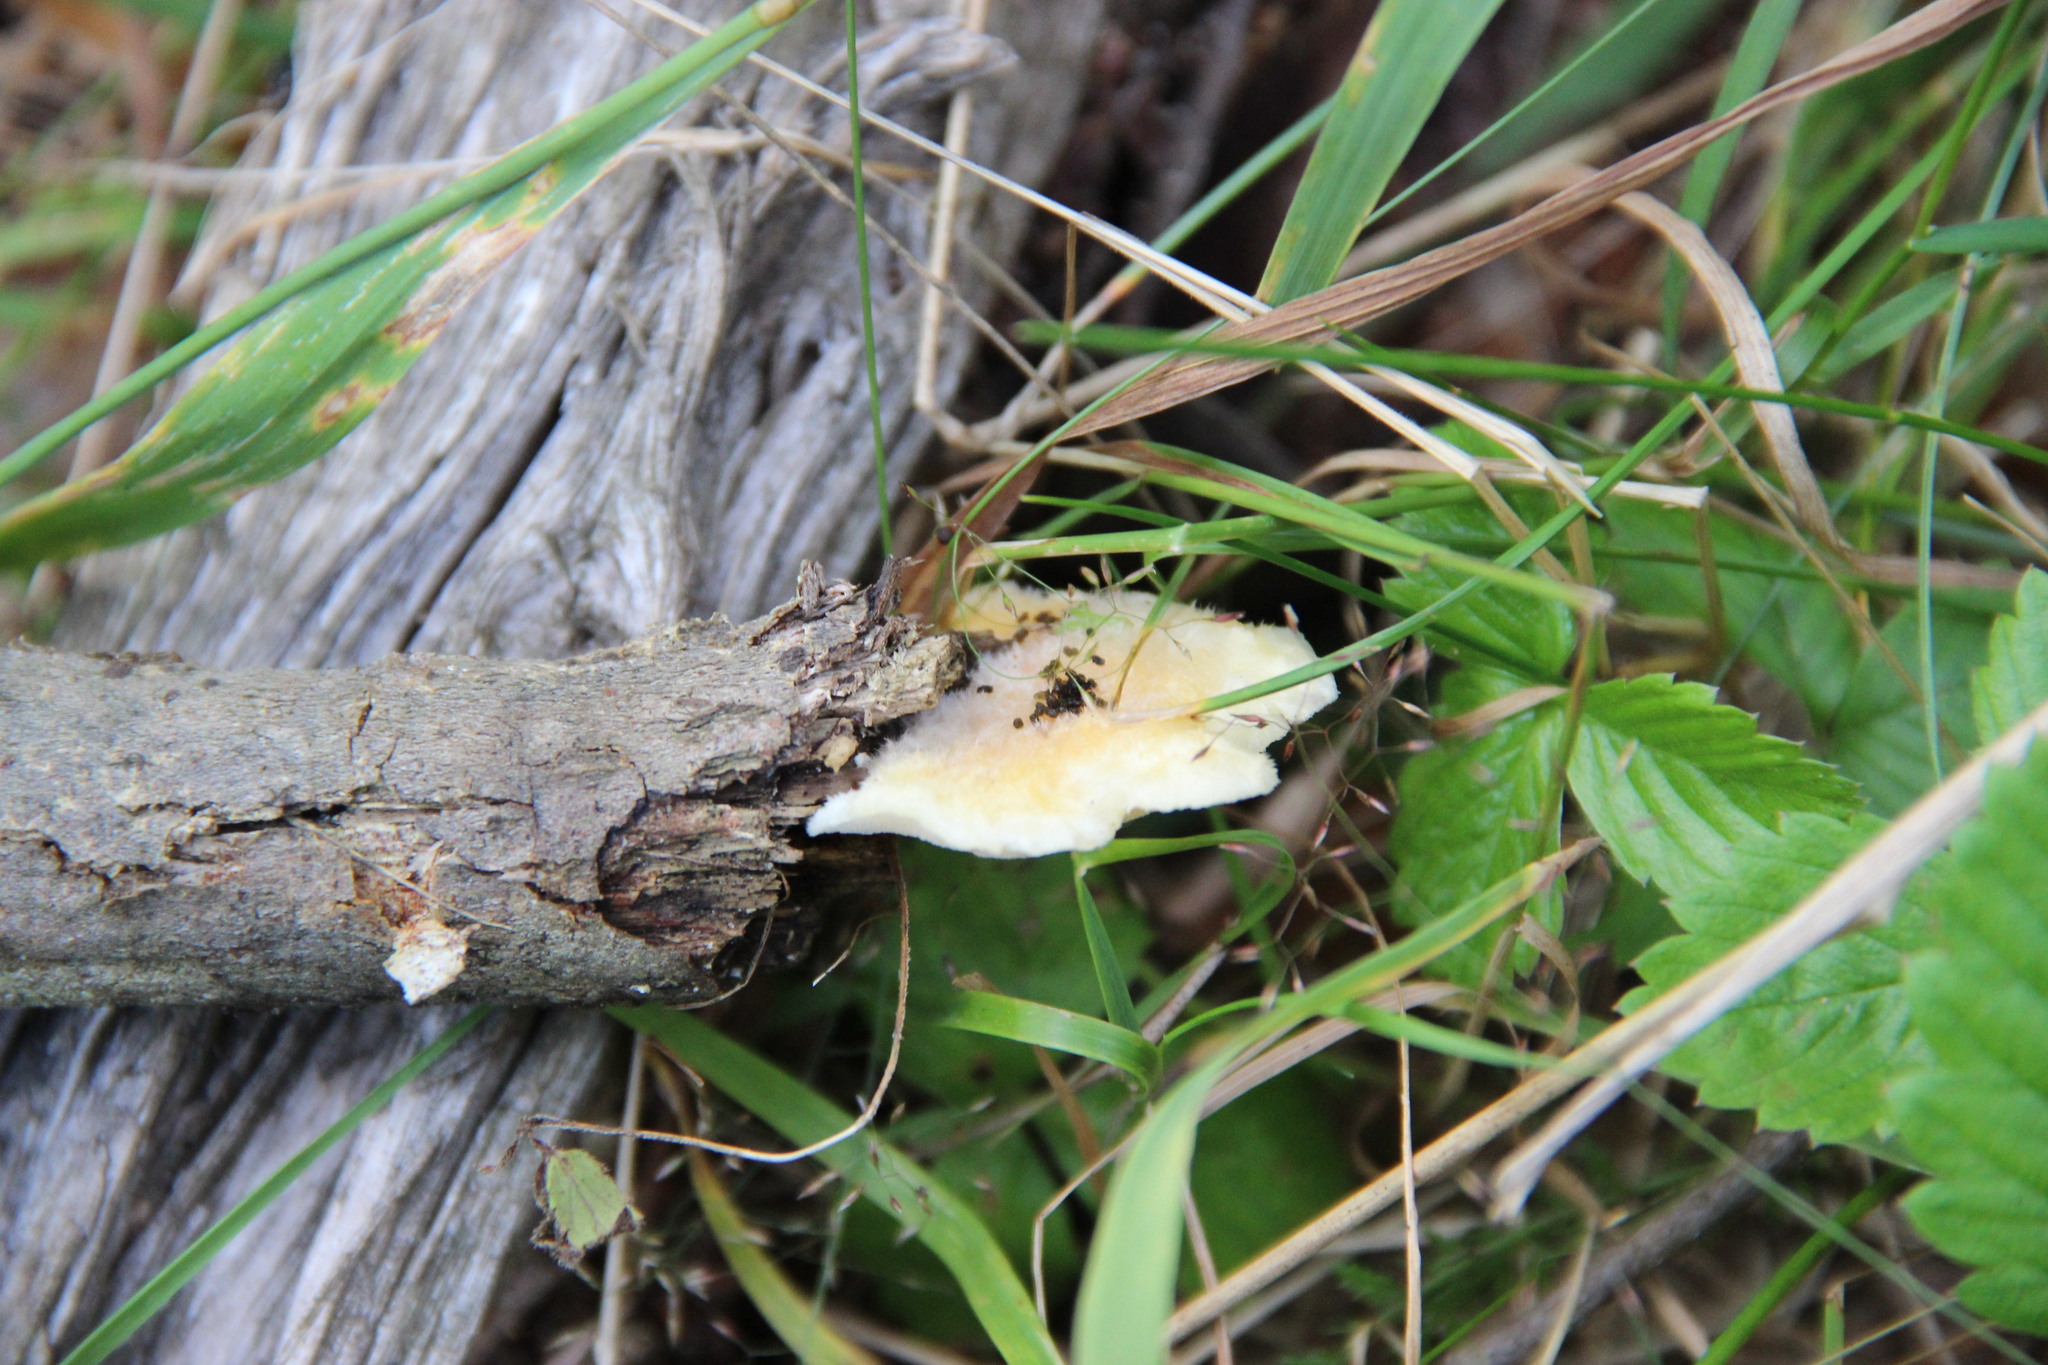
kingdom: Fungi
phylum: Basidiomycota
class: Agaricomycetes
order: Polyporales
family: Incrustoporiaceae
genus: Tyromyces
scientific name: Tyromyces kmetii
